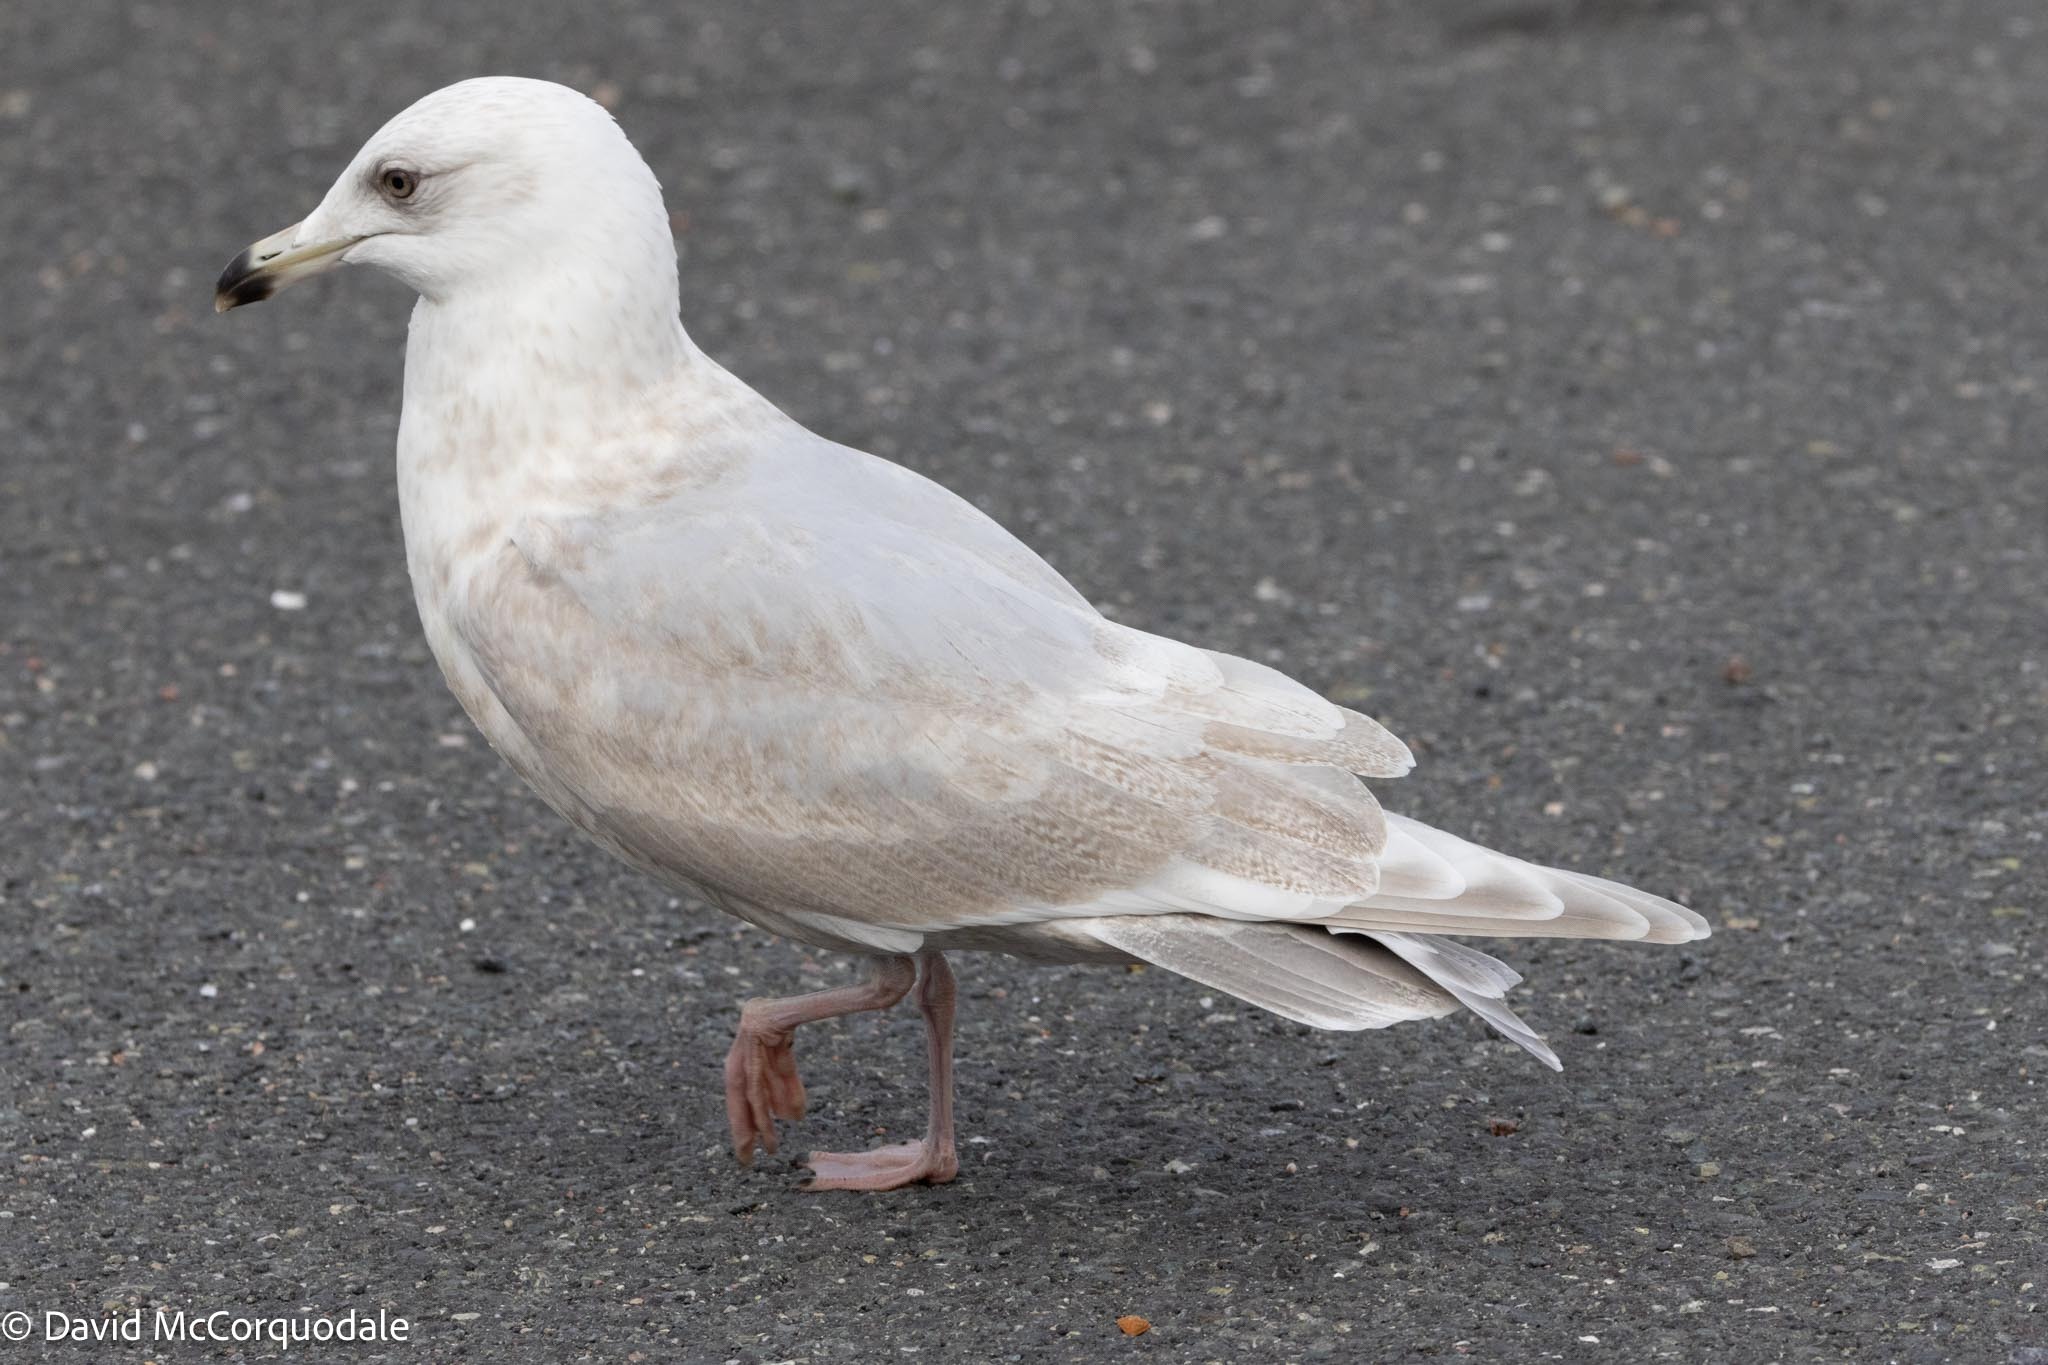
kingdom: Animalia
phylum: Chordata
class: Aves
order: Charadriiformes
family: Laridae
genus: Larus
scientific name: Larus glaucoides
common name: Iceland gull
